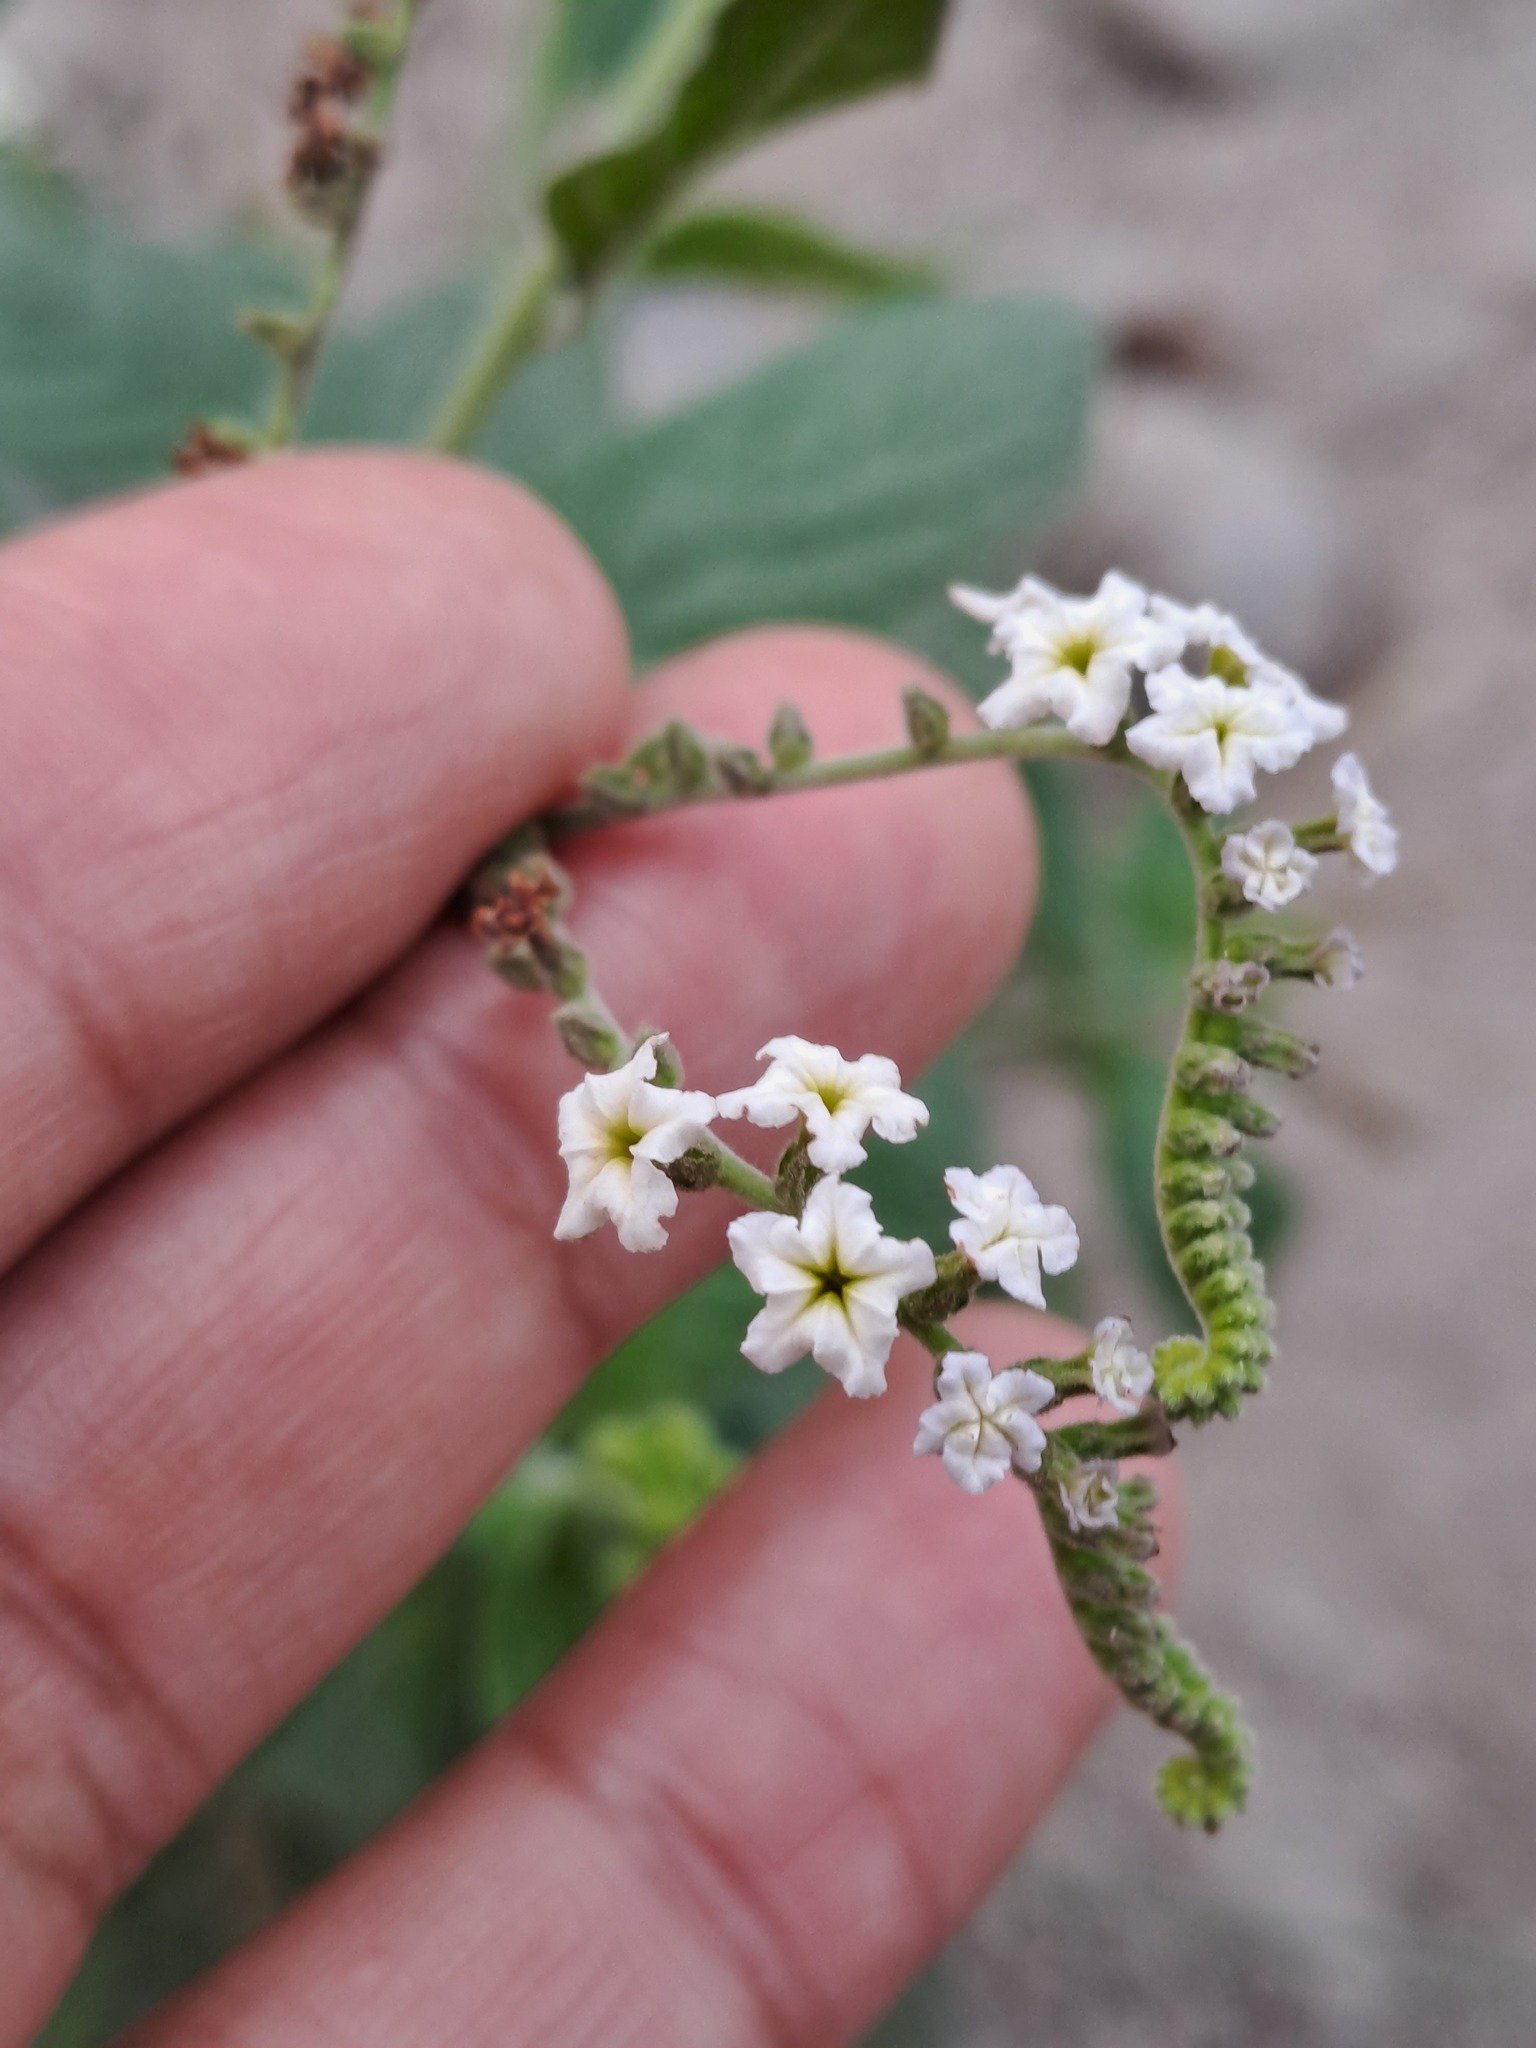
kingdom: Plantae
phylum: Tracheophyta
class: Magnoliopsida
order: Boraginales
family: Heliotropiaceae
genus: Heliotropium
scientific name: Heliotropium angiospermum
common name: Eye bright
